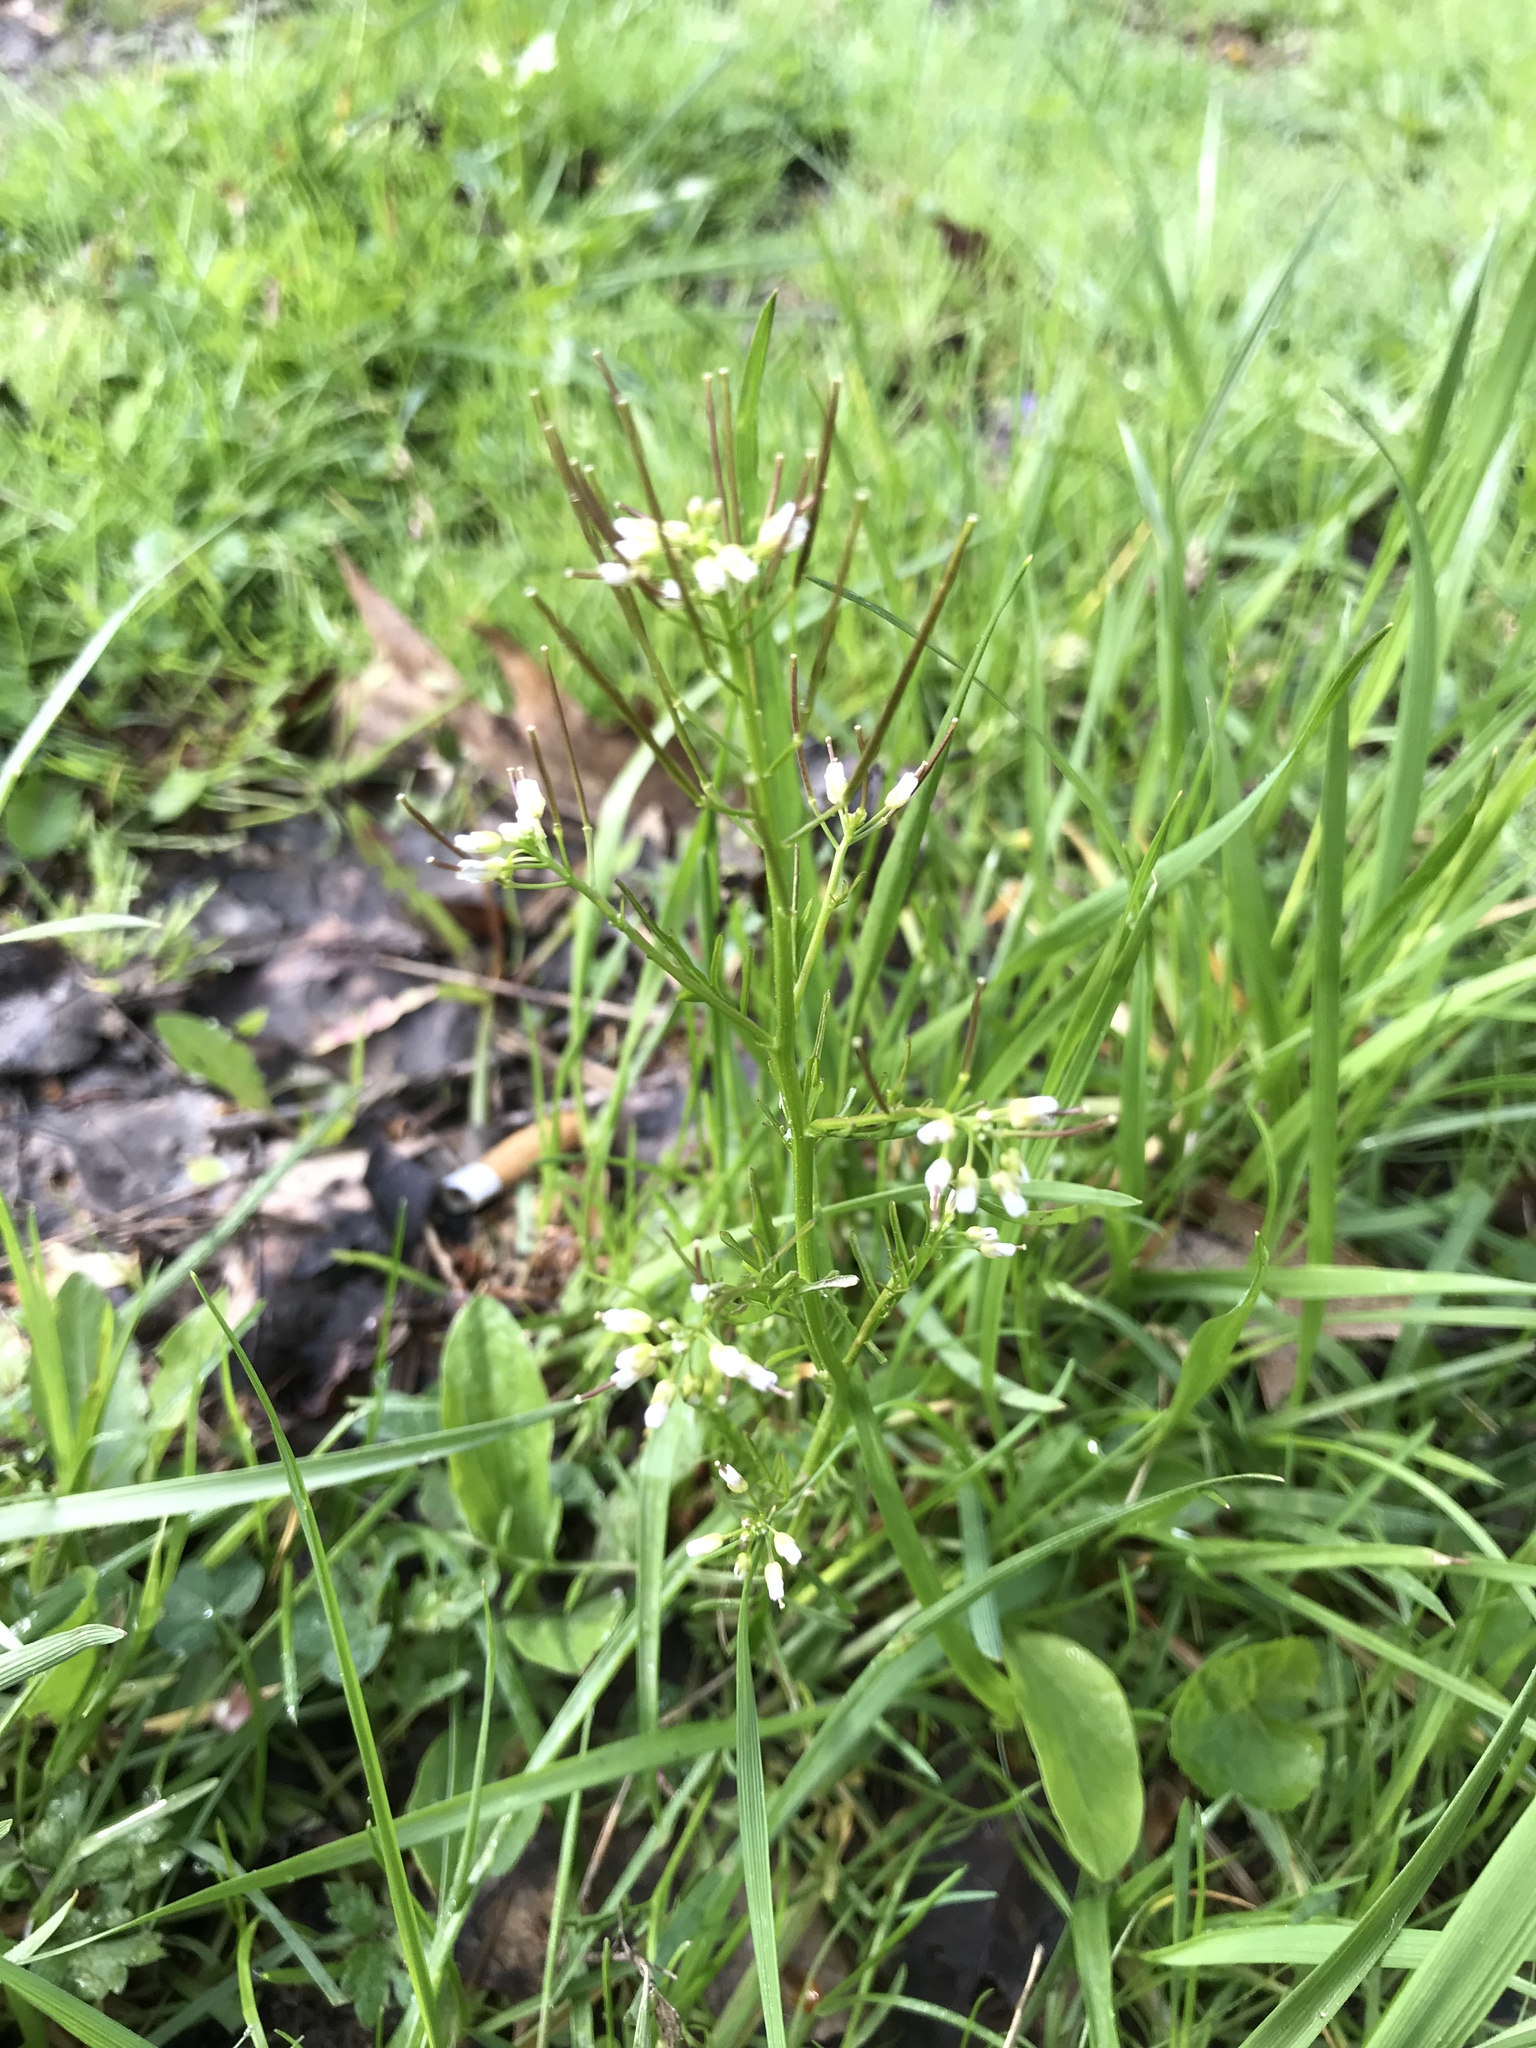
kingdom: Plantae
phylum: Tracheophyta
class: Magnoliopsida
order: Brassicales
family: Brassicaceae
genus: Cardamine
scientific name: Cardamine pensylvanica
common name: Pennsylvania bittercress
